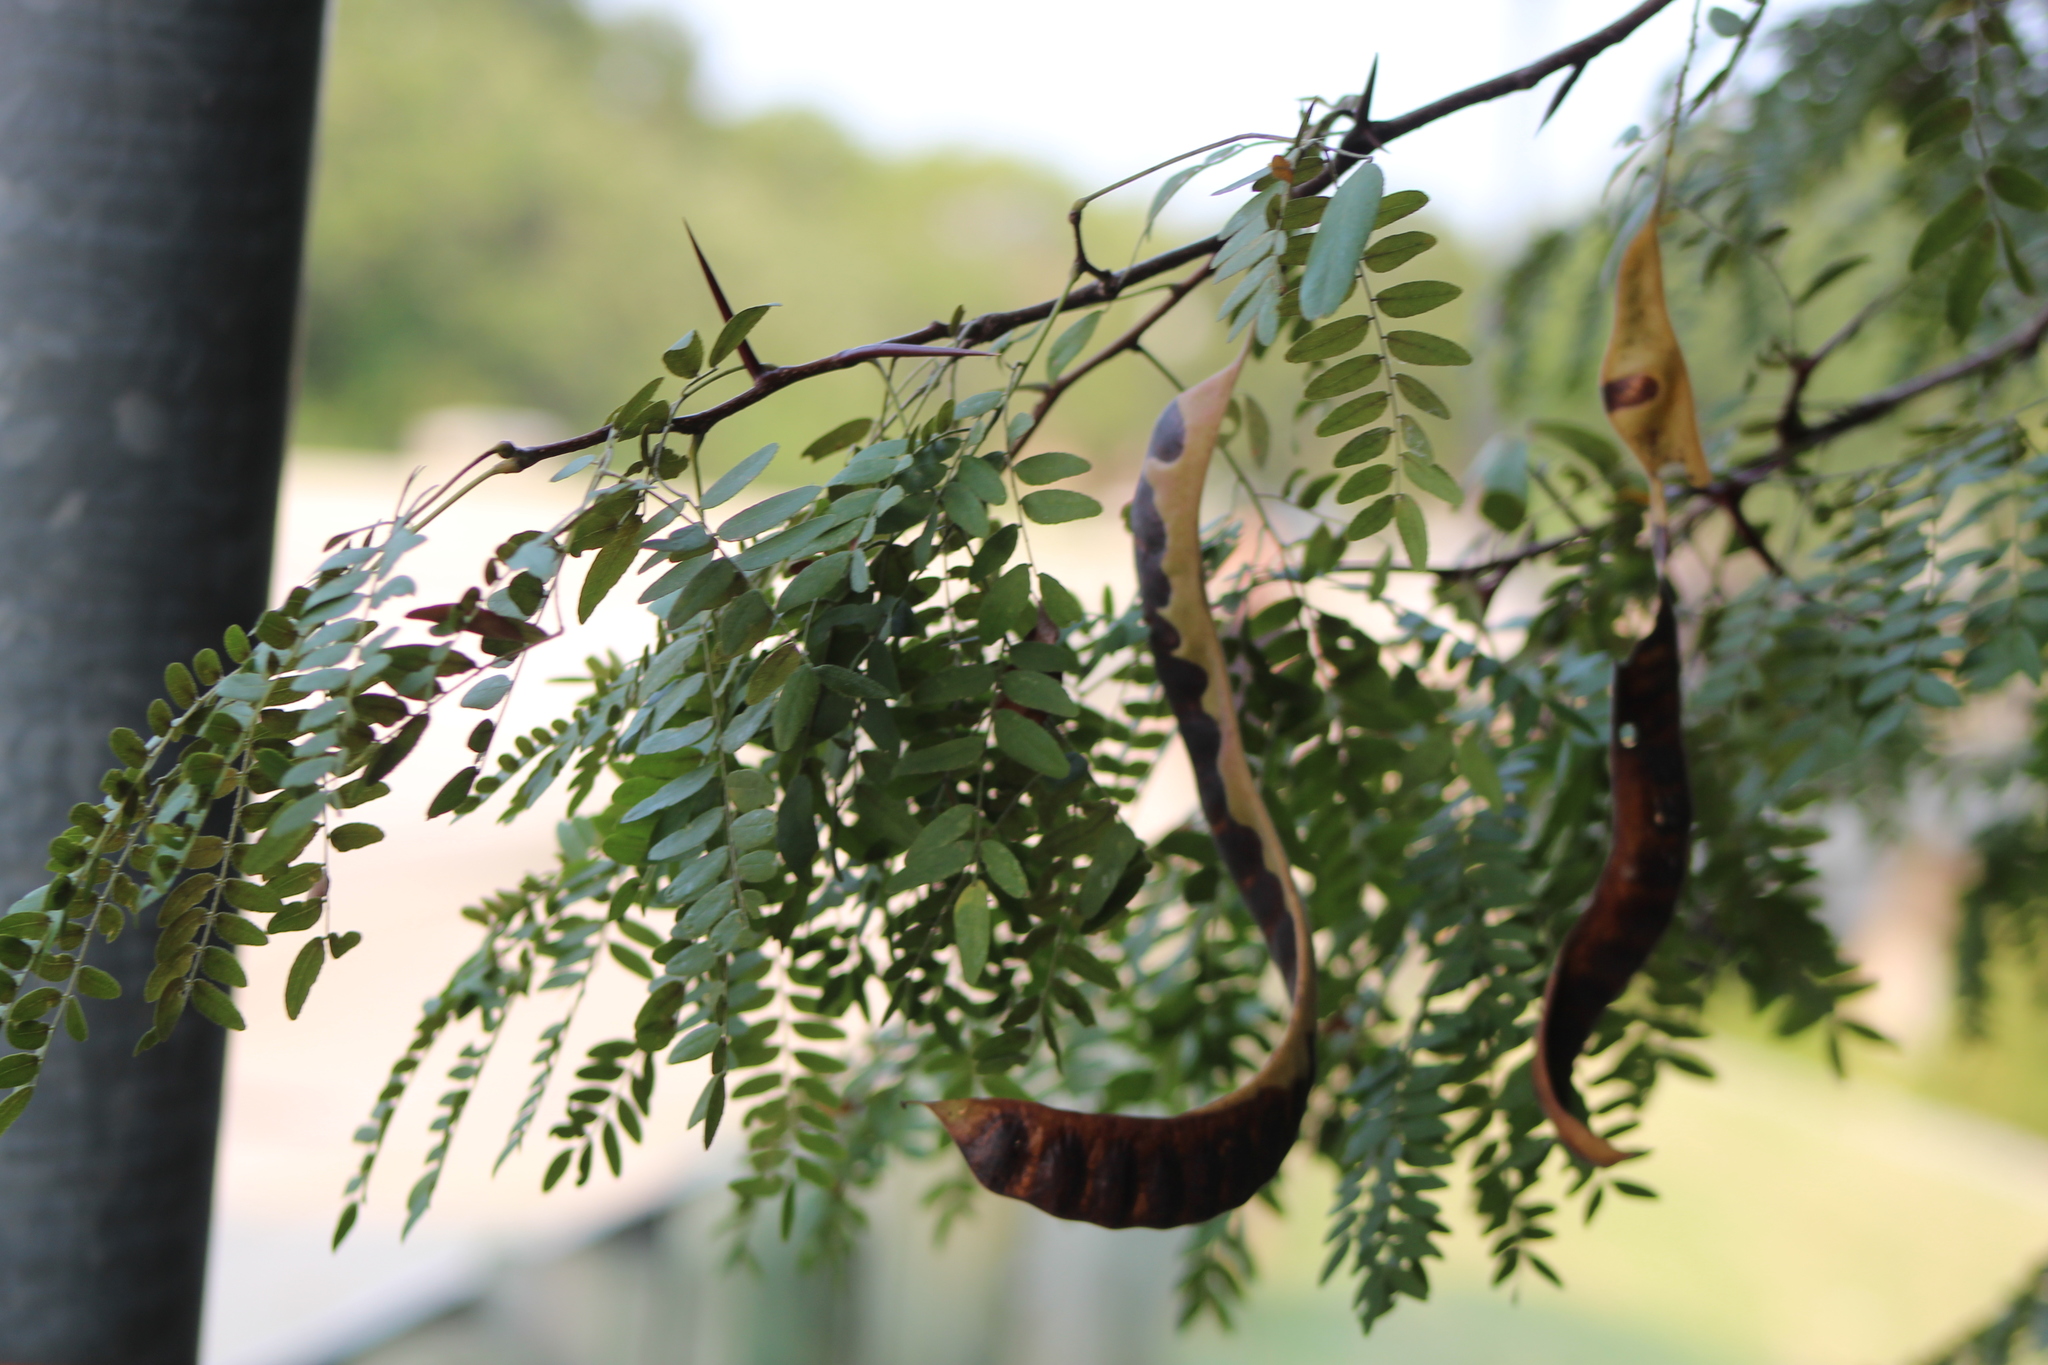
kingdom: Plantae
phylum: Tracheophyta
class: Magnoliopsida
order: Fabales
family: Fabaceae
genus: Gleditsia
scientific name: Gleditsia triacanthos
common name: Common honeylocust
